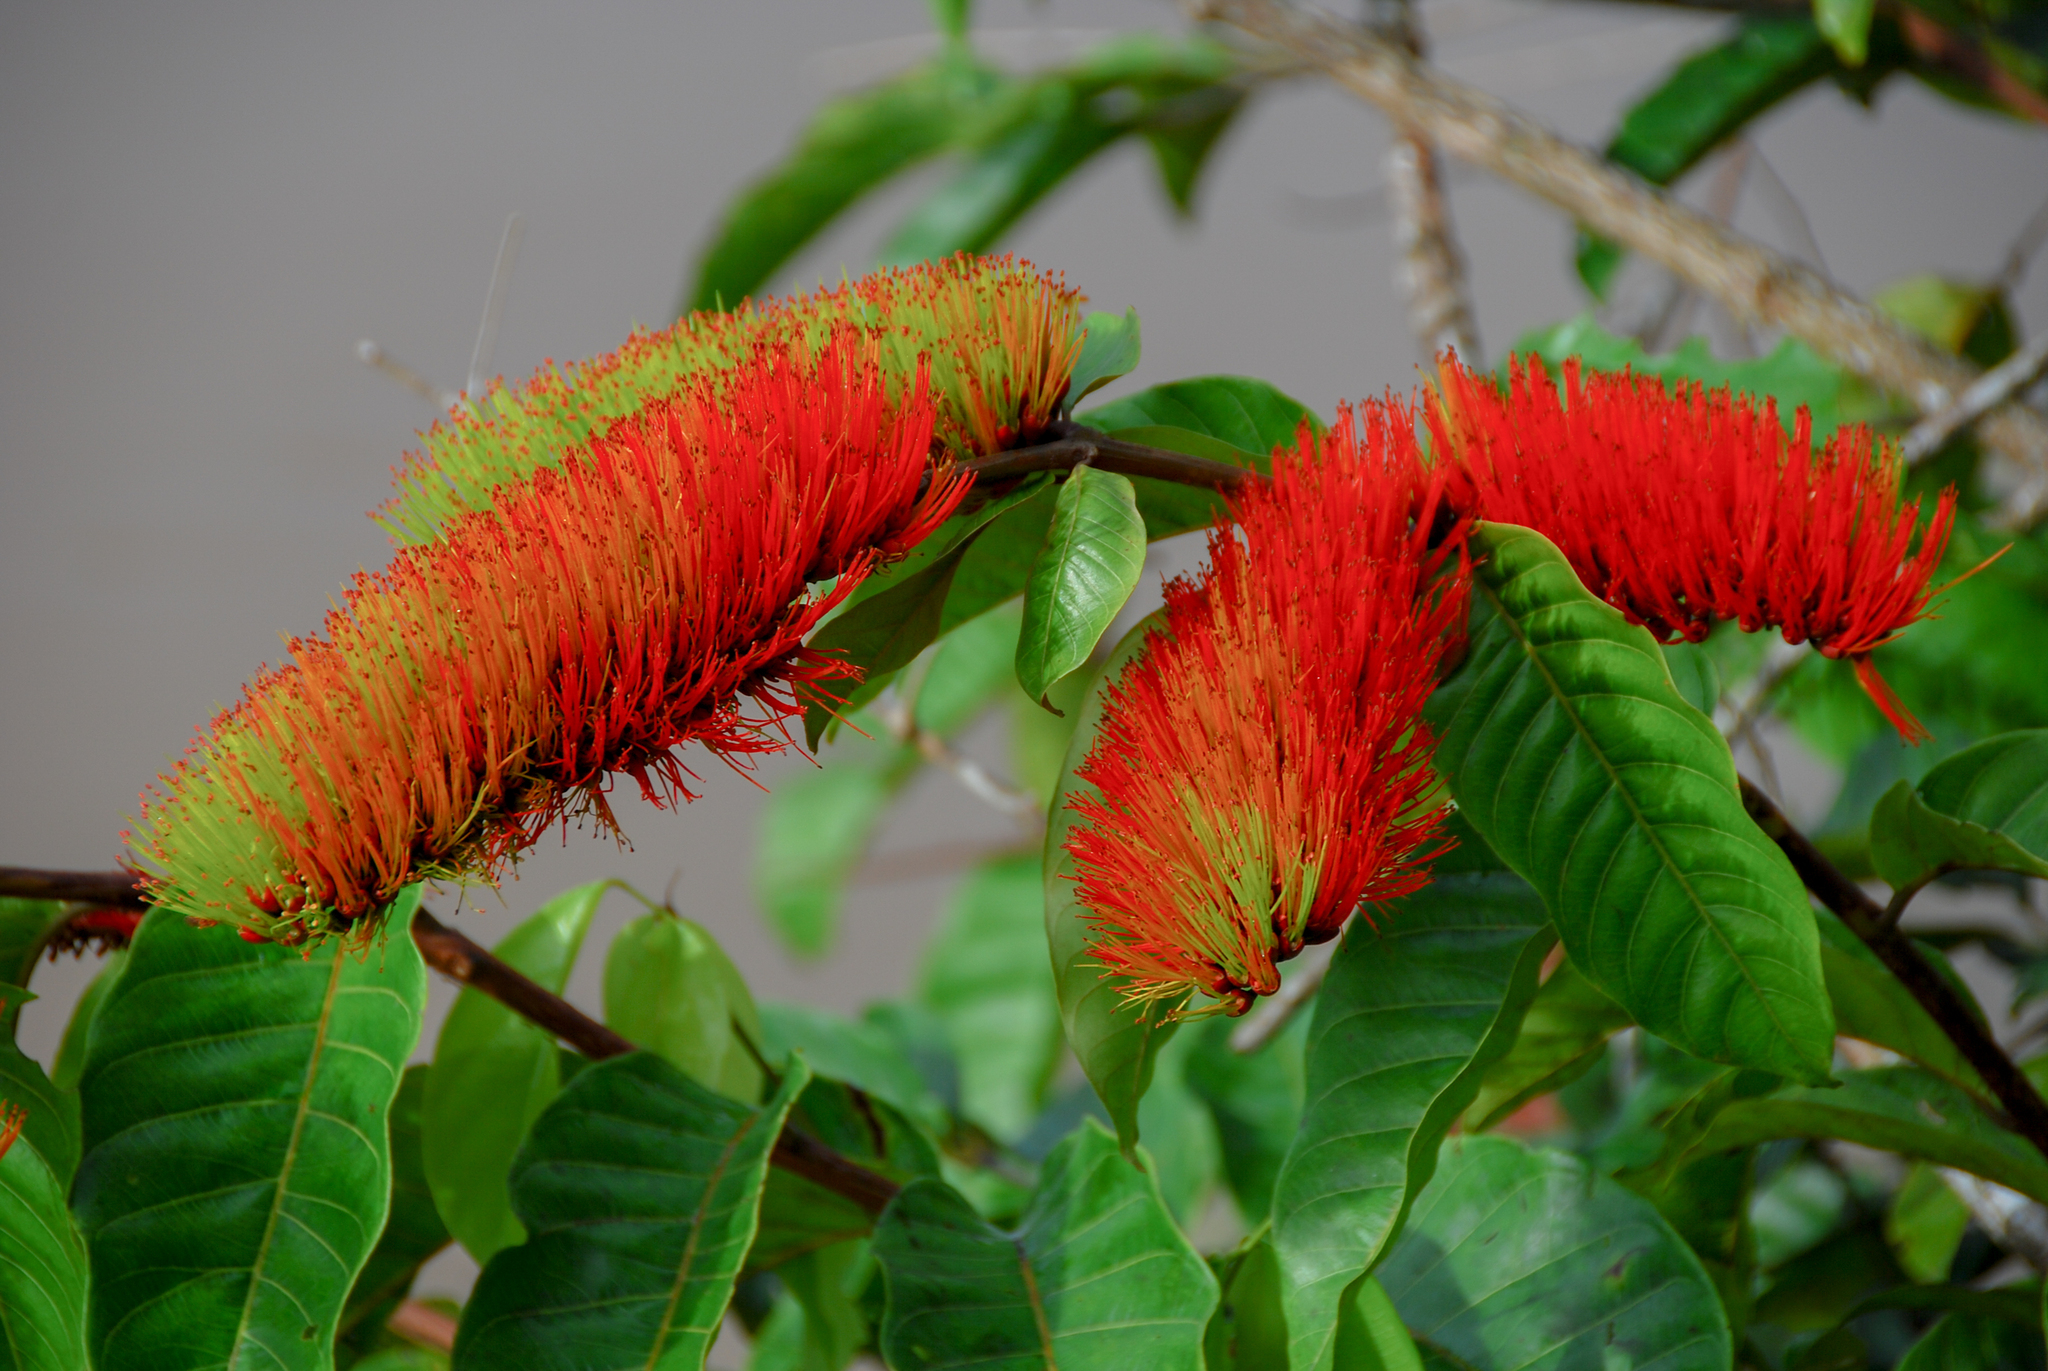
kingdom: Plantae
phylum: Tracheophyta
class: Magnoliopsida
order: Myrtales
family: Combretaceae
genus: Combretum
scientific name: Combretum fruticosum
